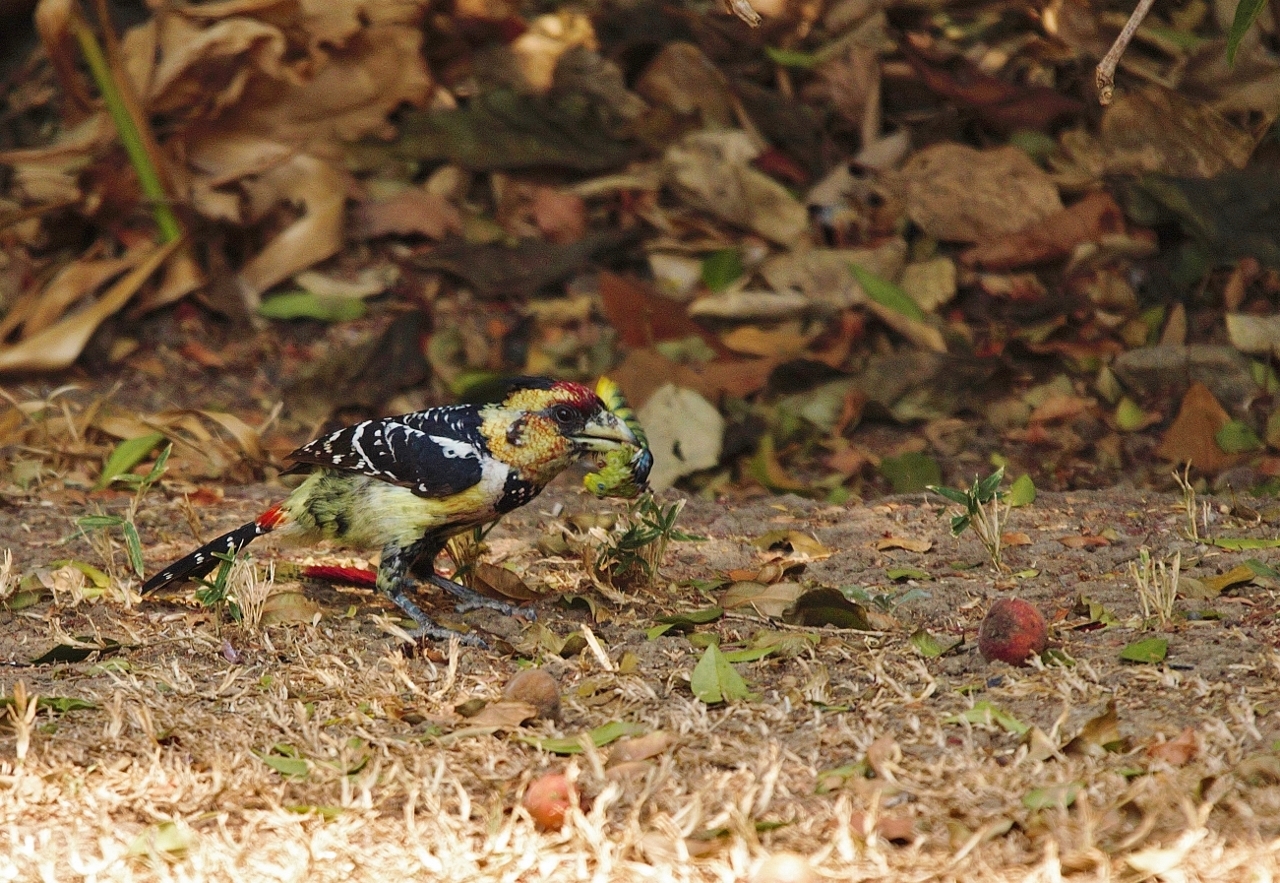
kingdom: Animalia
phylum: Arthropoda
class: Insecta
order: Orthoptera
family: Pyrgomorphidae
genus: Phymateus
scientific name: Phymateus viridipes
